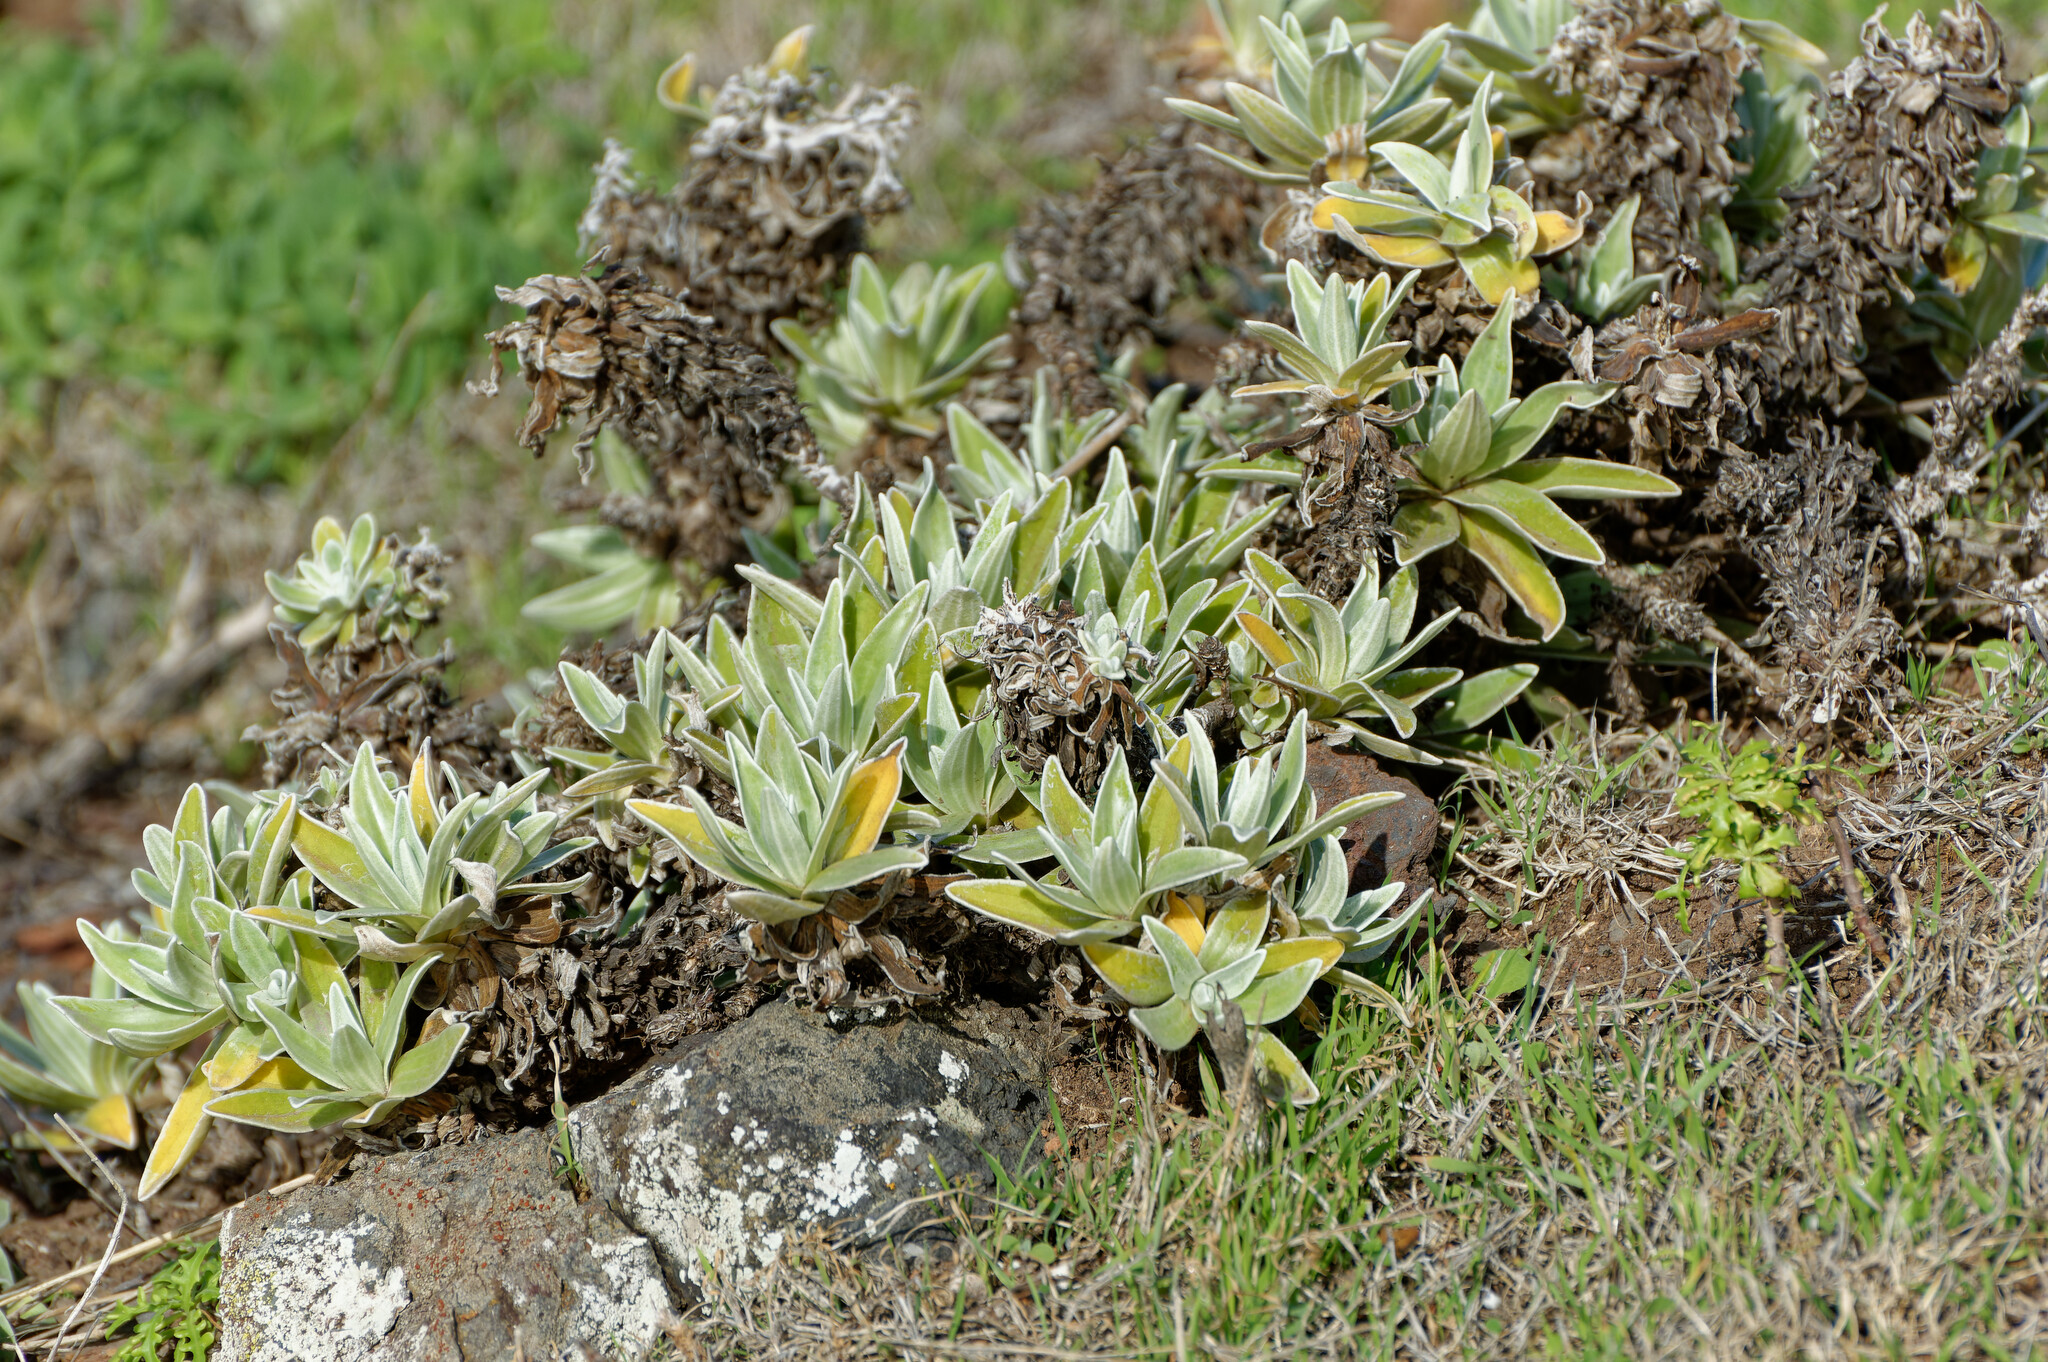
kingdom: Plantae
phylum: Tracheophyta
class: Magnoliopsida
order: Asterales
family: Asteraceae
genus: Helichrysum
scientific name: Helichrysum devium
